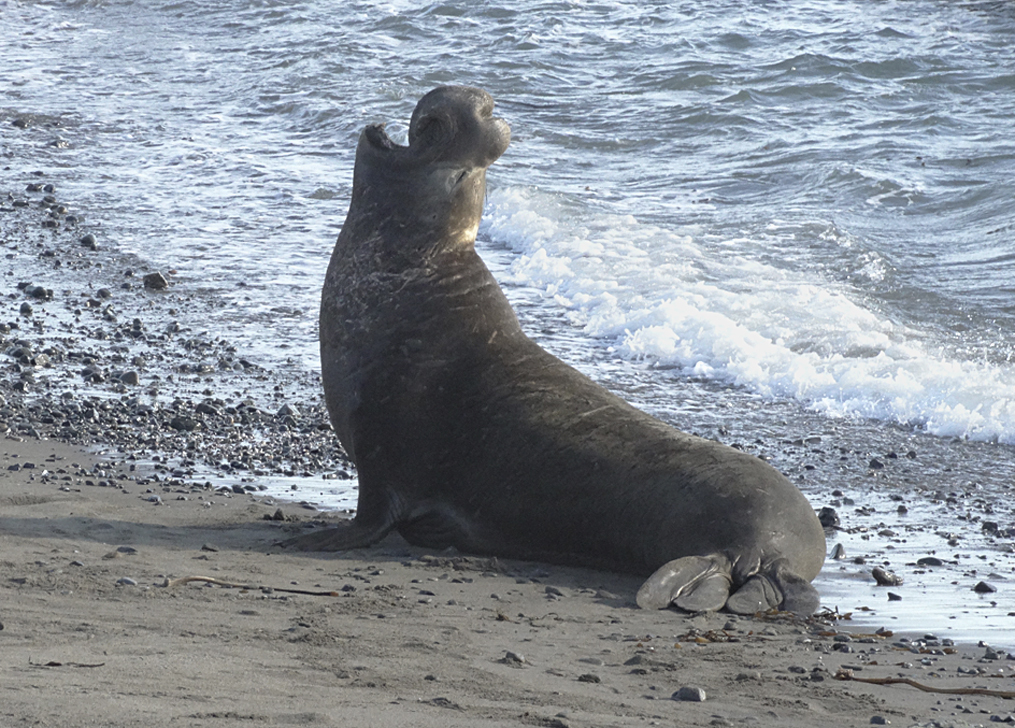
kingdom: Animalia
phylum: Chordata
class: Mammalia
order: Carnivora
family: Phocidae
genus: Mirounga
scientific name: Mirounga angustirostris
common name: Northern elephant seal
